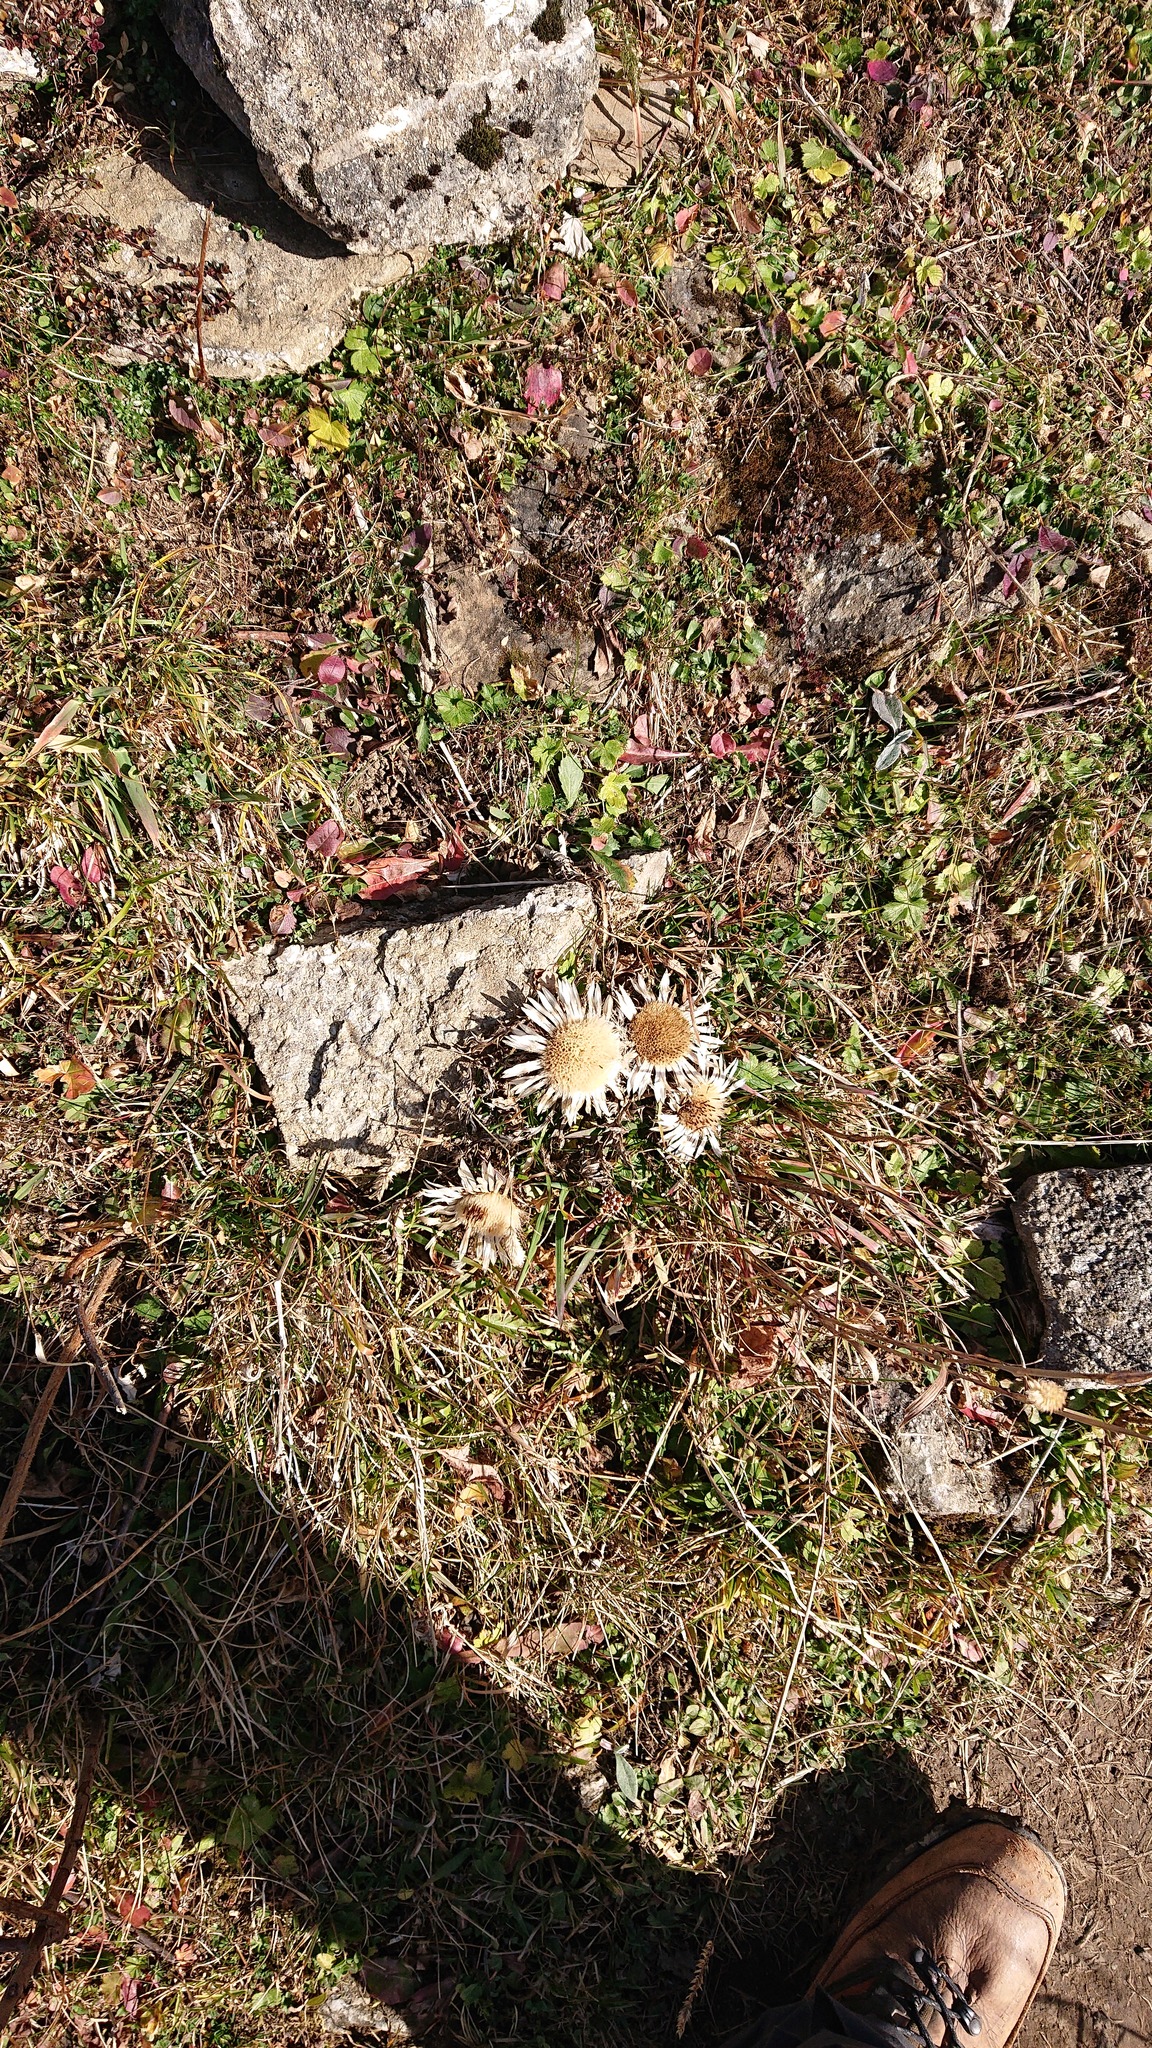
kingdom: Plantae
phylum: Tracheophyta
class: Magnoliopsida
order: Asterales
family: Asteraceae
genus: Carlina
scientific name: Carlina acaulis
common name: Stemless carline thistle
